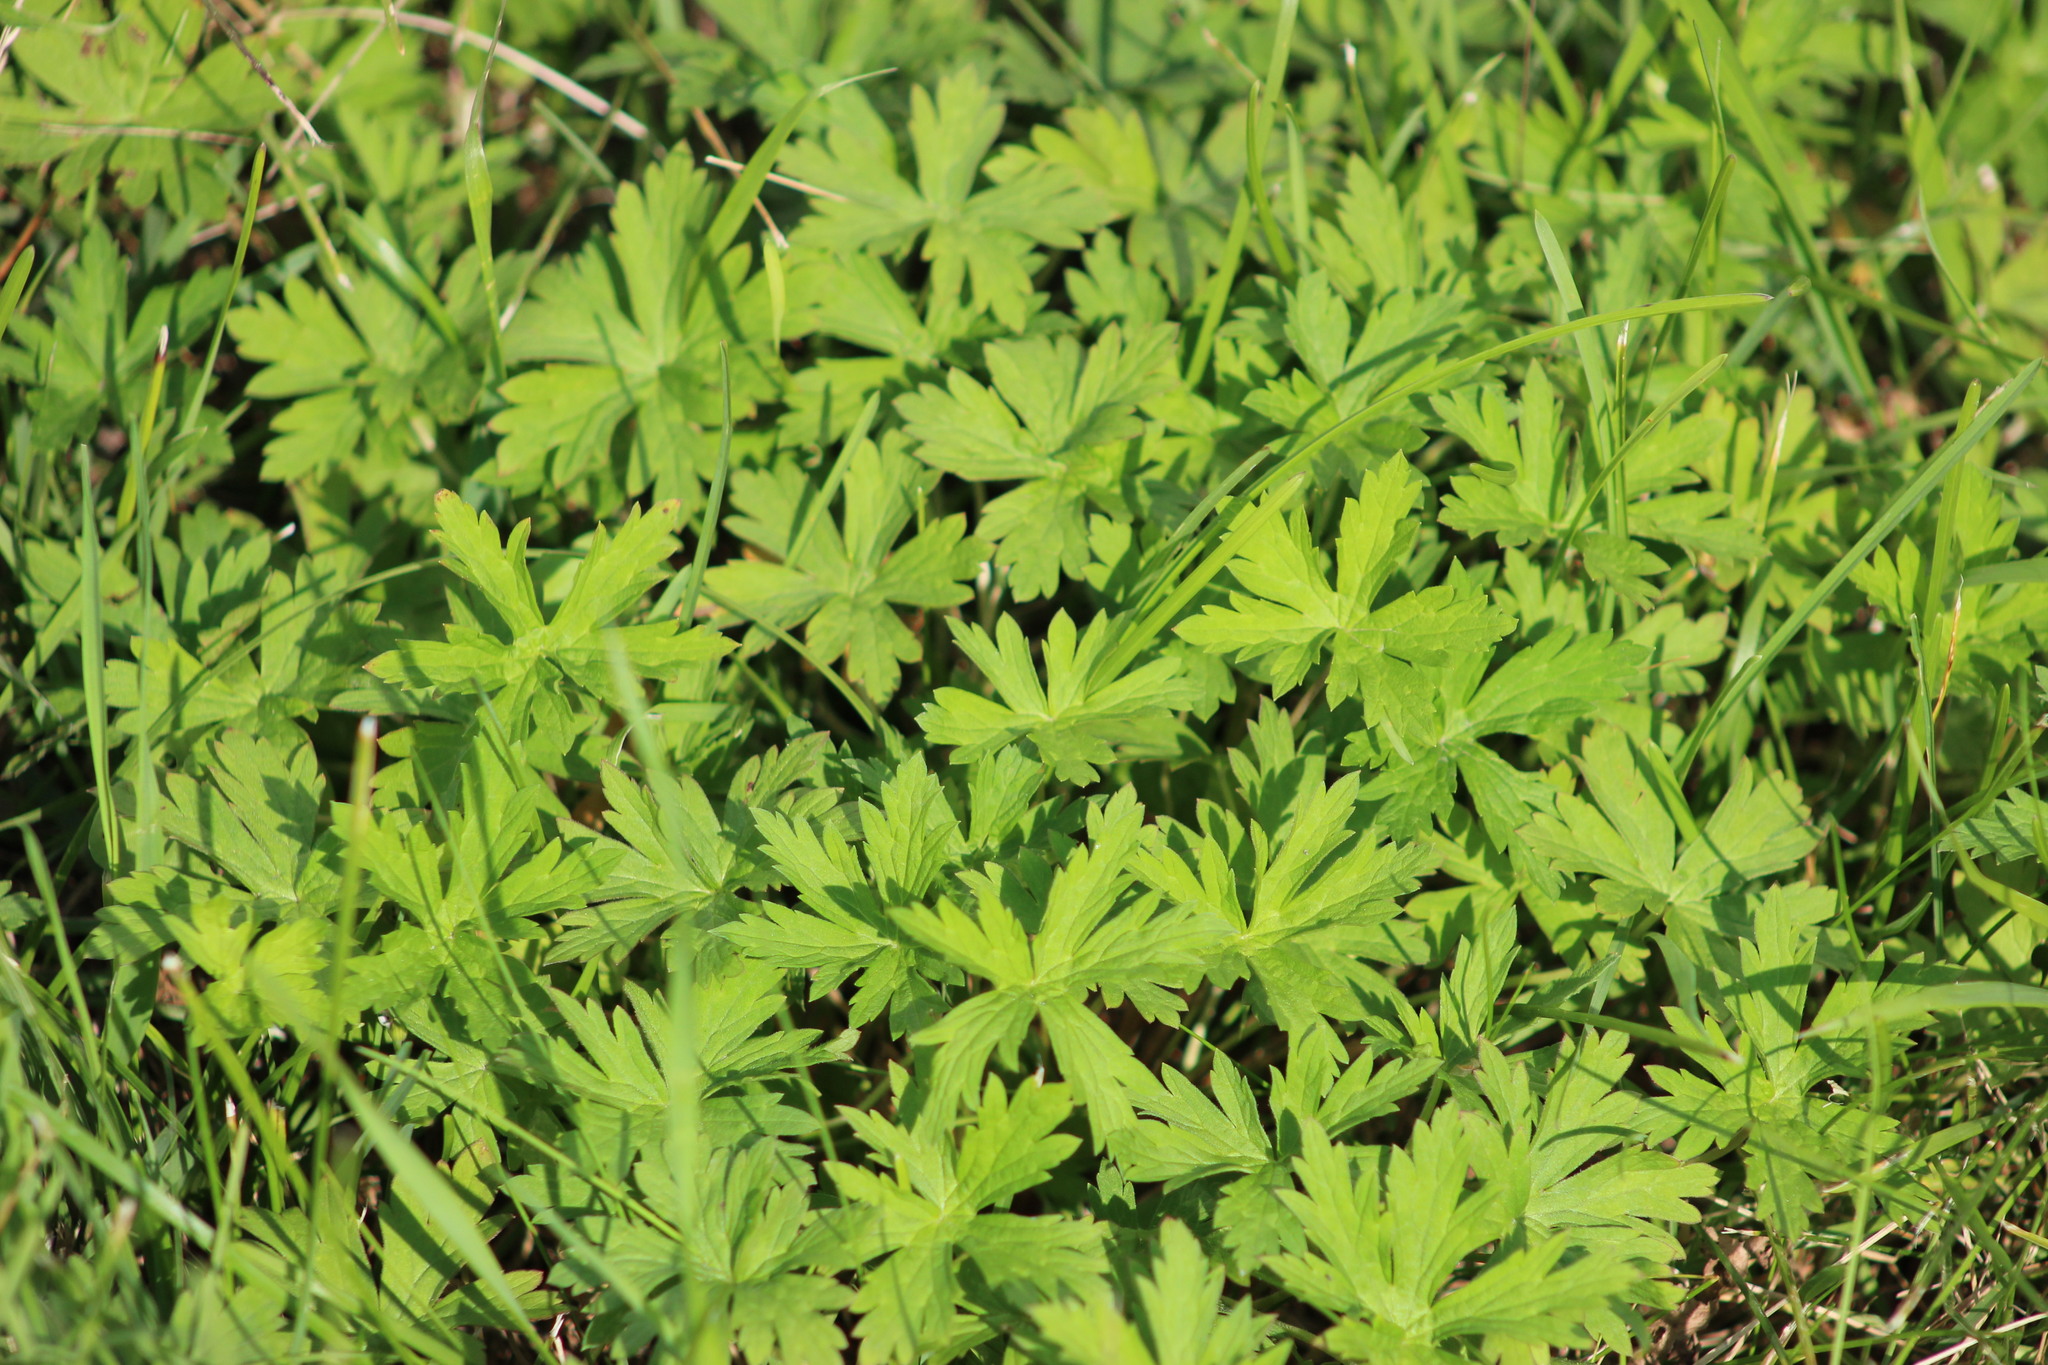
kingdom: Plantae
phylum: Tracheophyta
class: Magnoliopsida
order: Geraniales
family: Geraniaceae
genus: Geranium
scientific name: Geranium sibiricum
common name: Siberian crane's-bill
